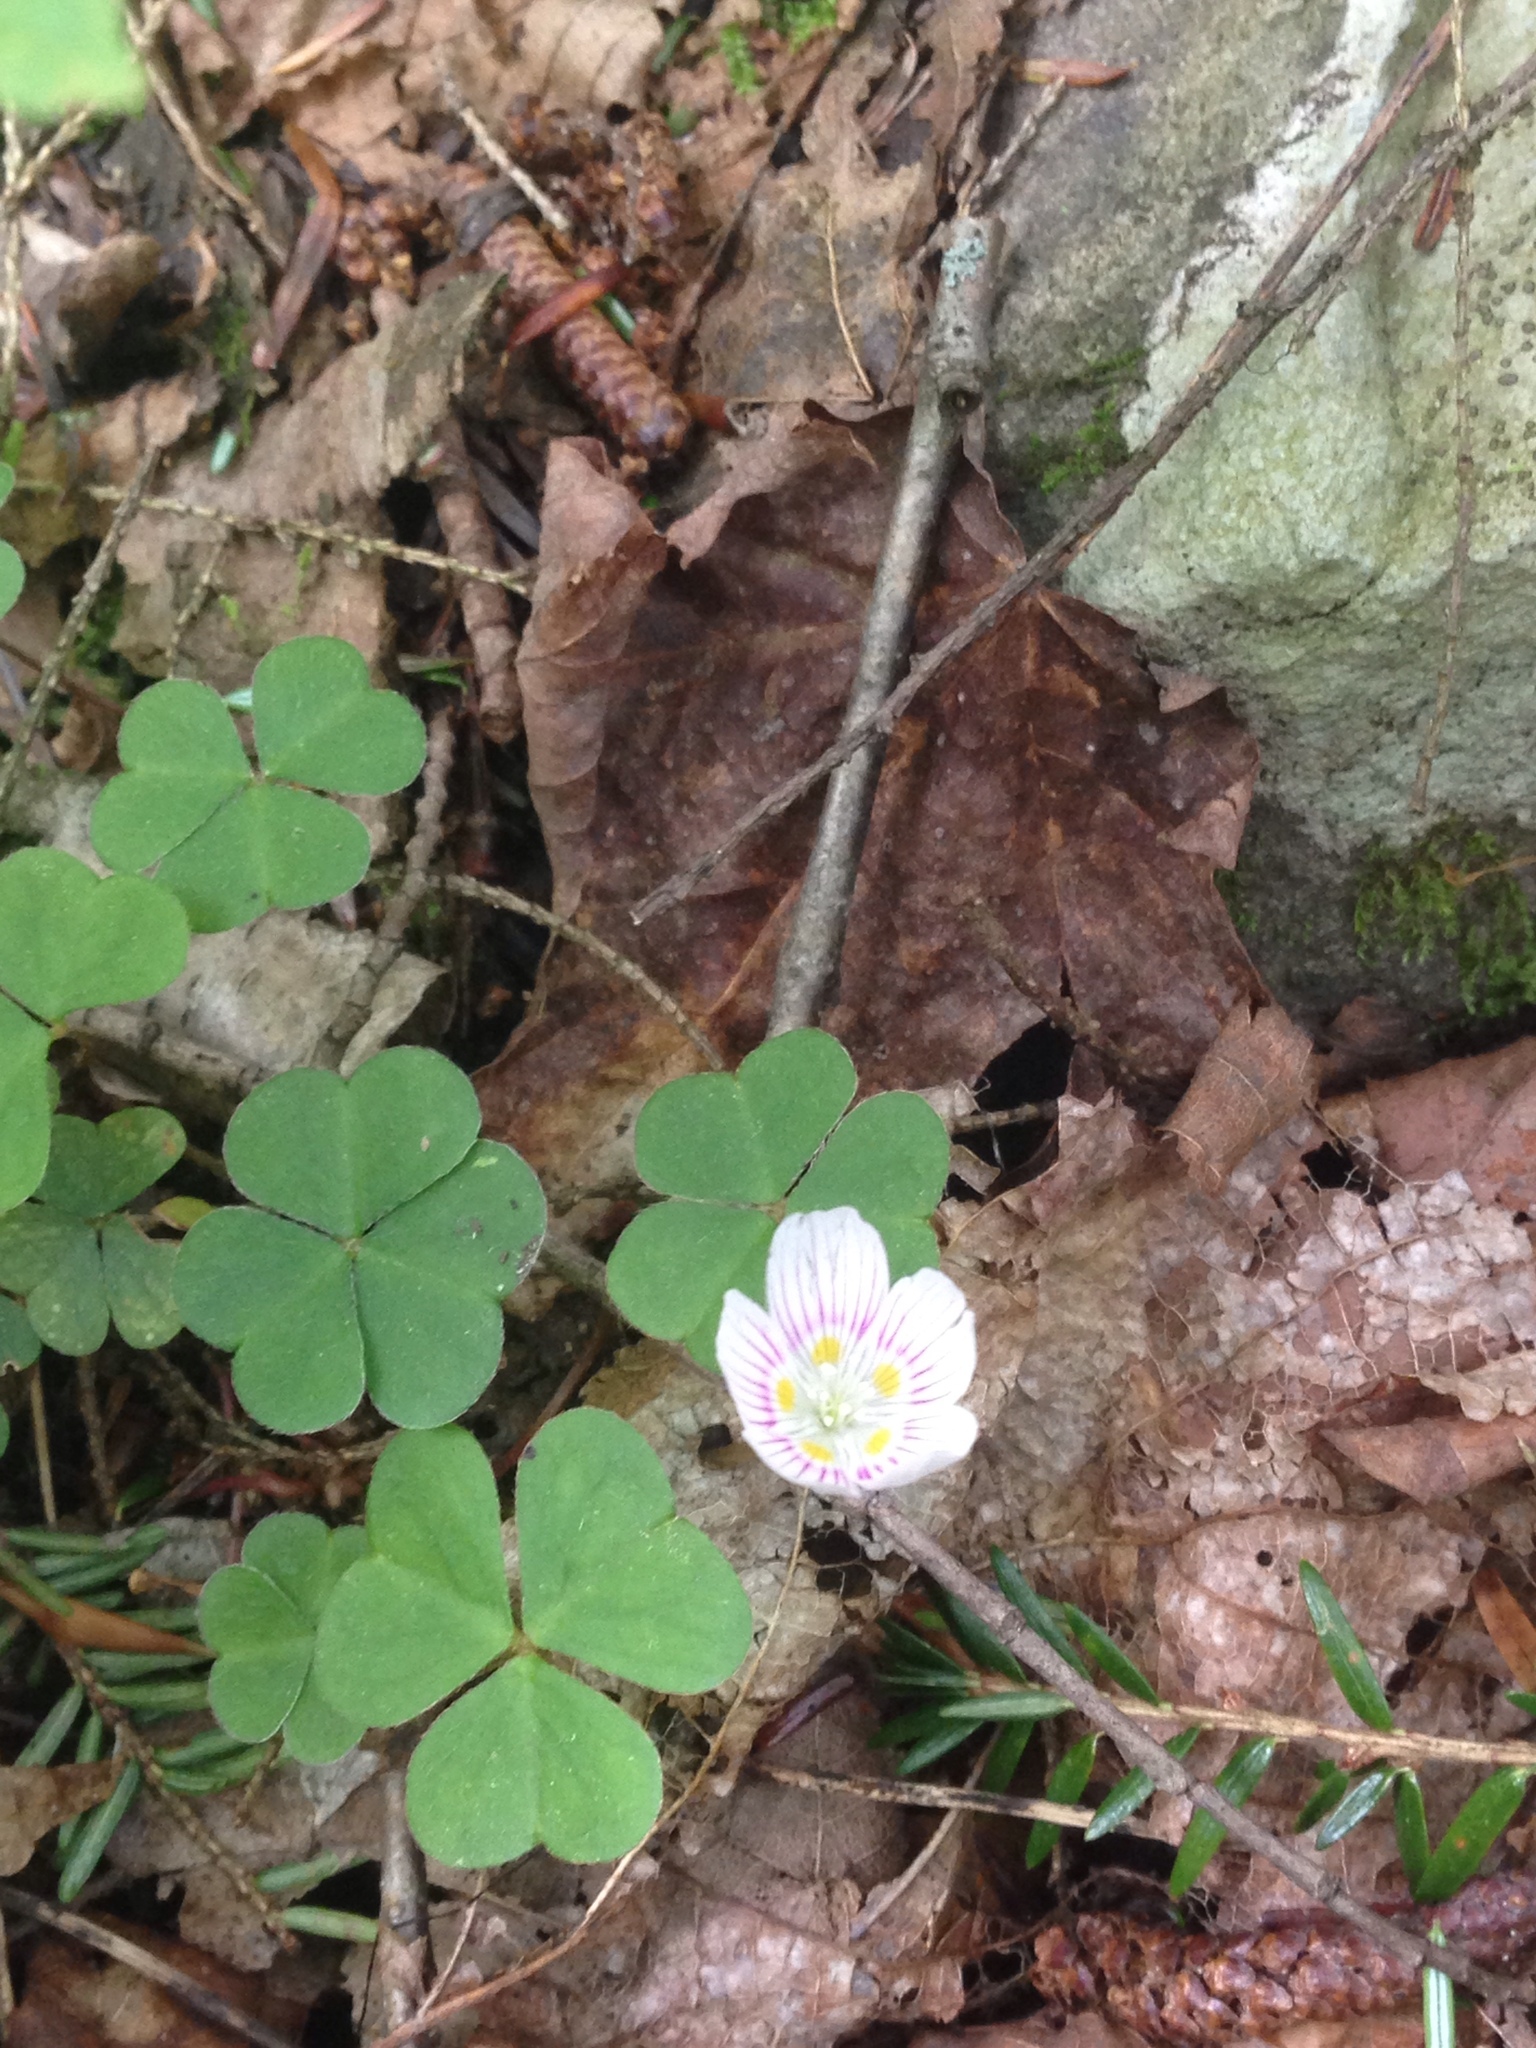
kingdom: Plantae
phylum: Tracheophyta
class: Magnoliopsida
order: Oxalidales
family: Oxalidaceae
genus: Oxalis
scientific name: Oxalis montana
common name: American wood-sorrel
